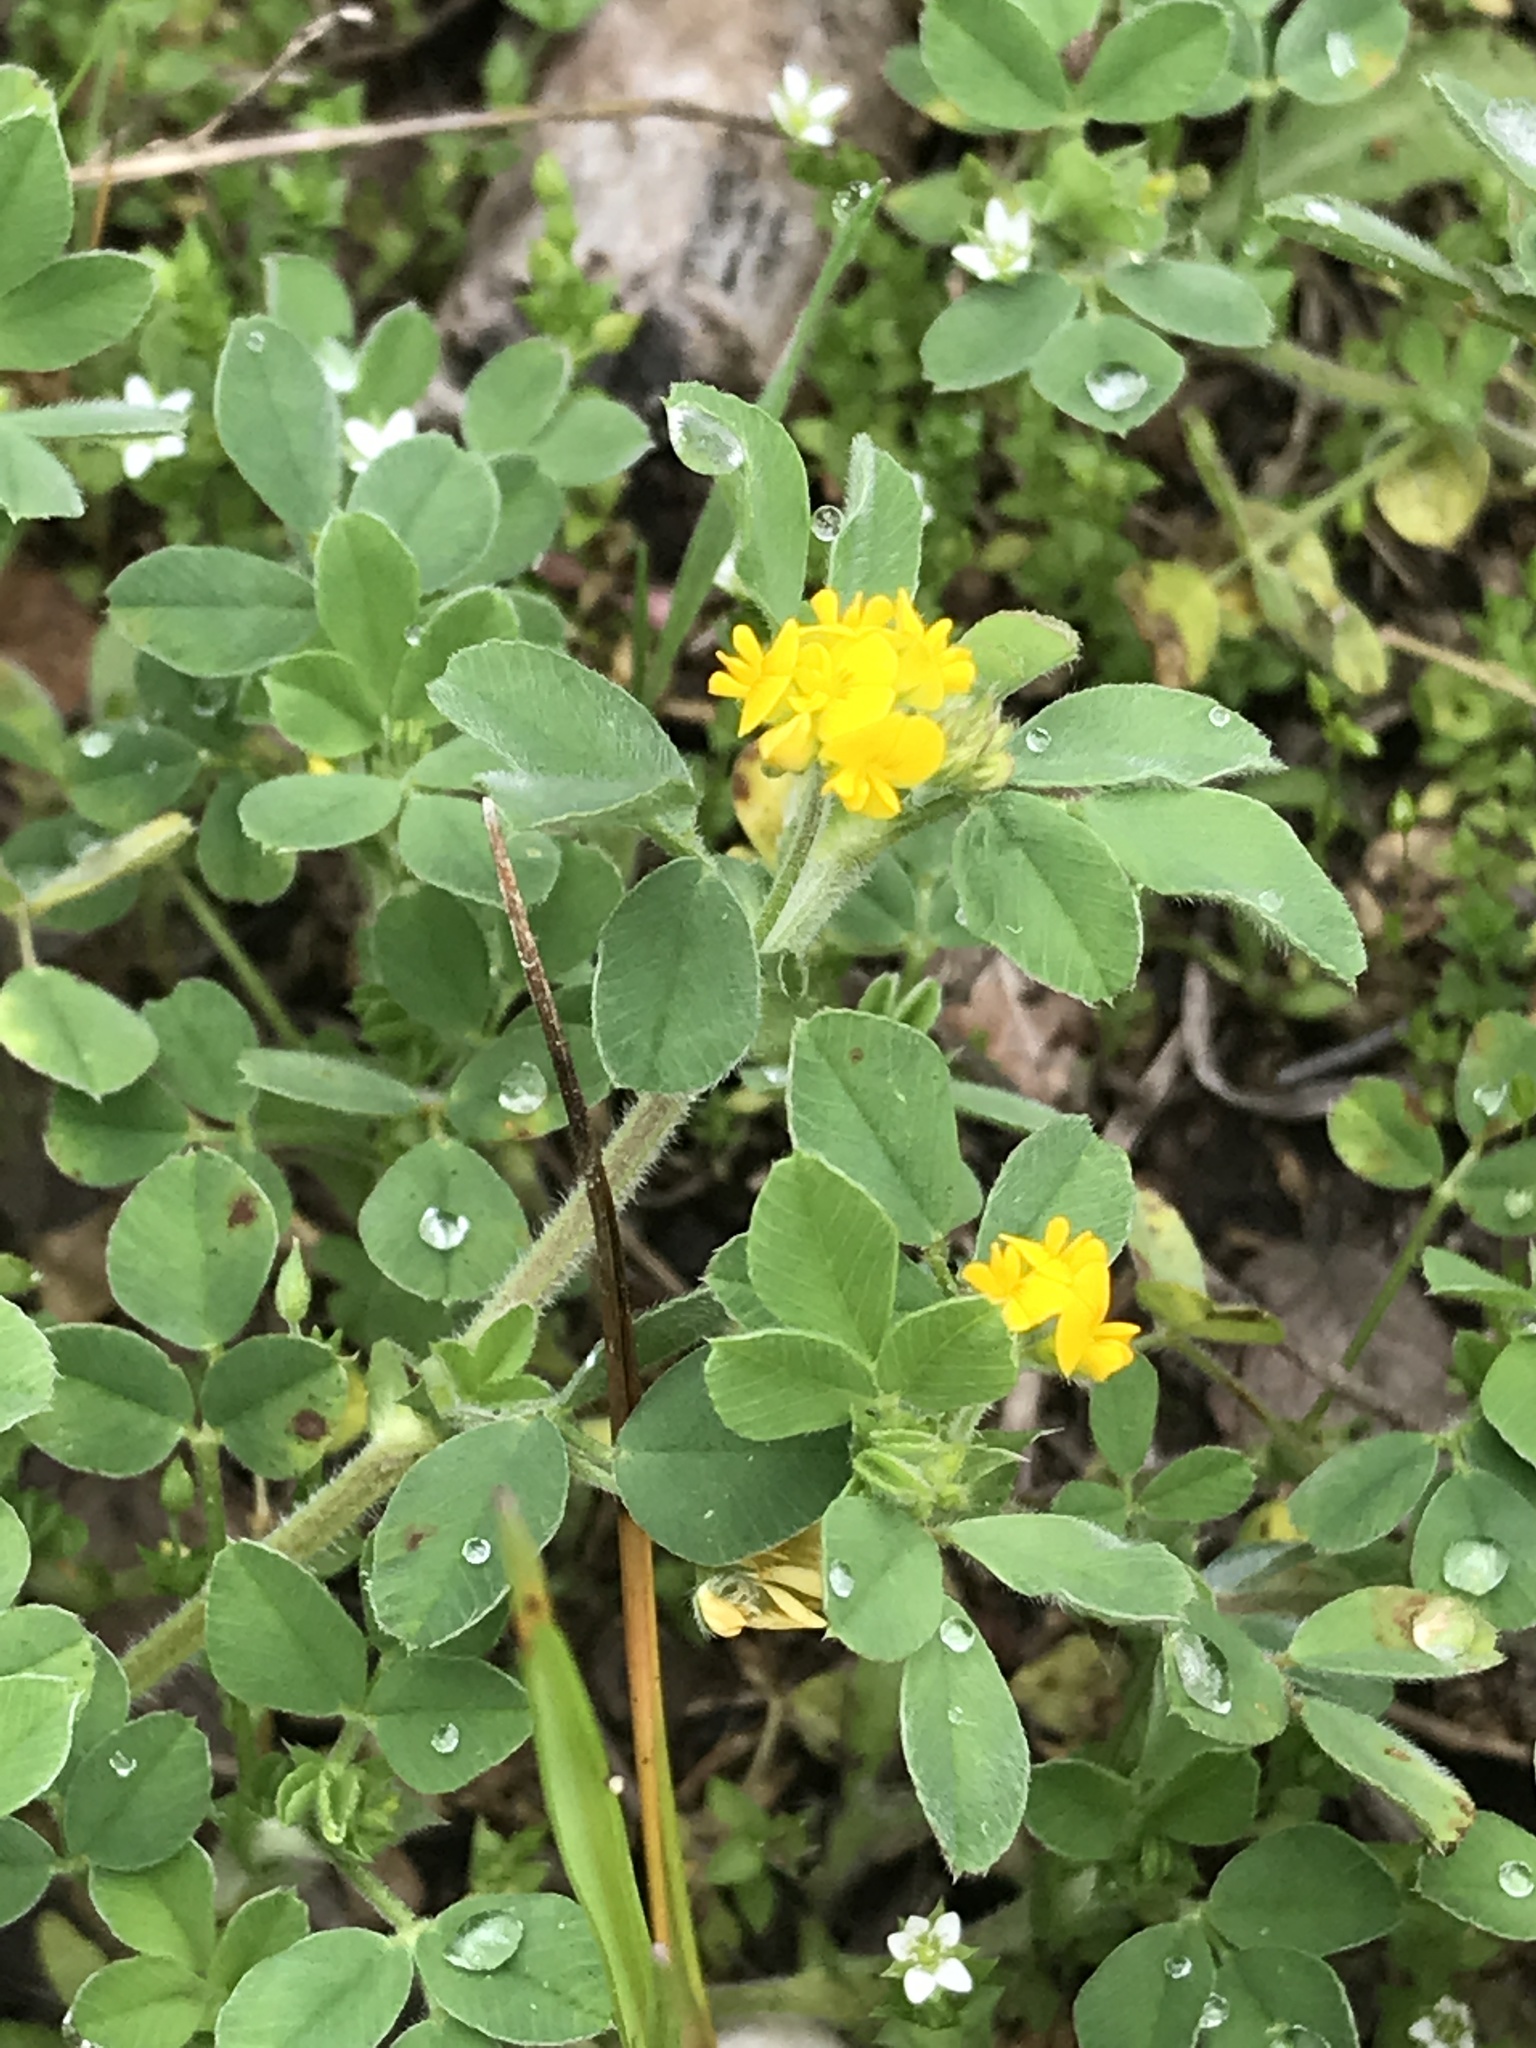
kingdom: Plantae
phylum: Tracheophyta
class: Magnoliopsida
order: Fabales
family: Fabaceae
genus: Medicago
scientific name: Medicago minima
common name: Little bur-clover
